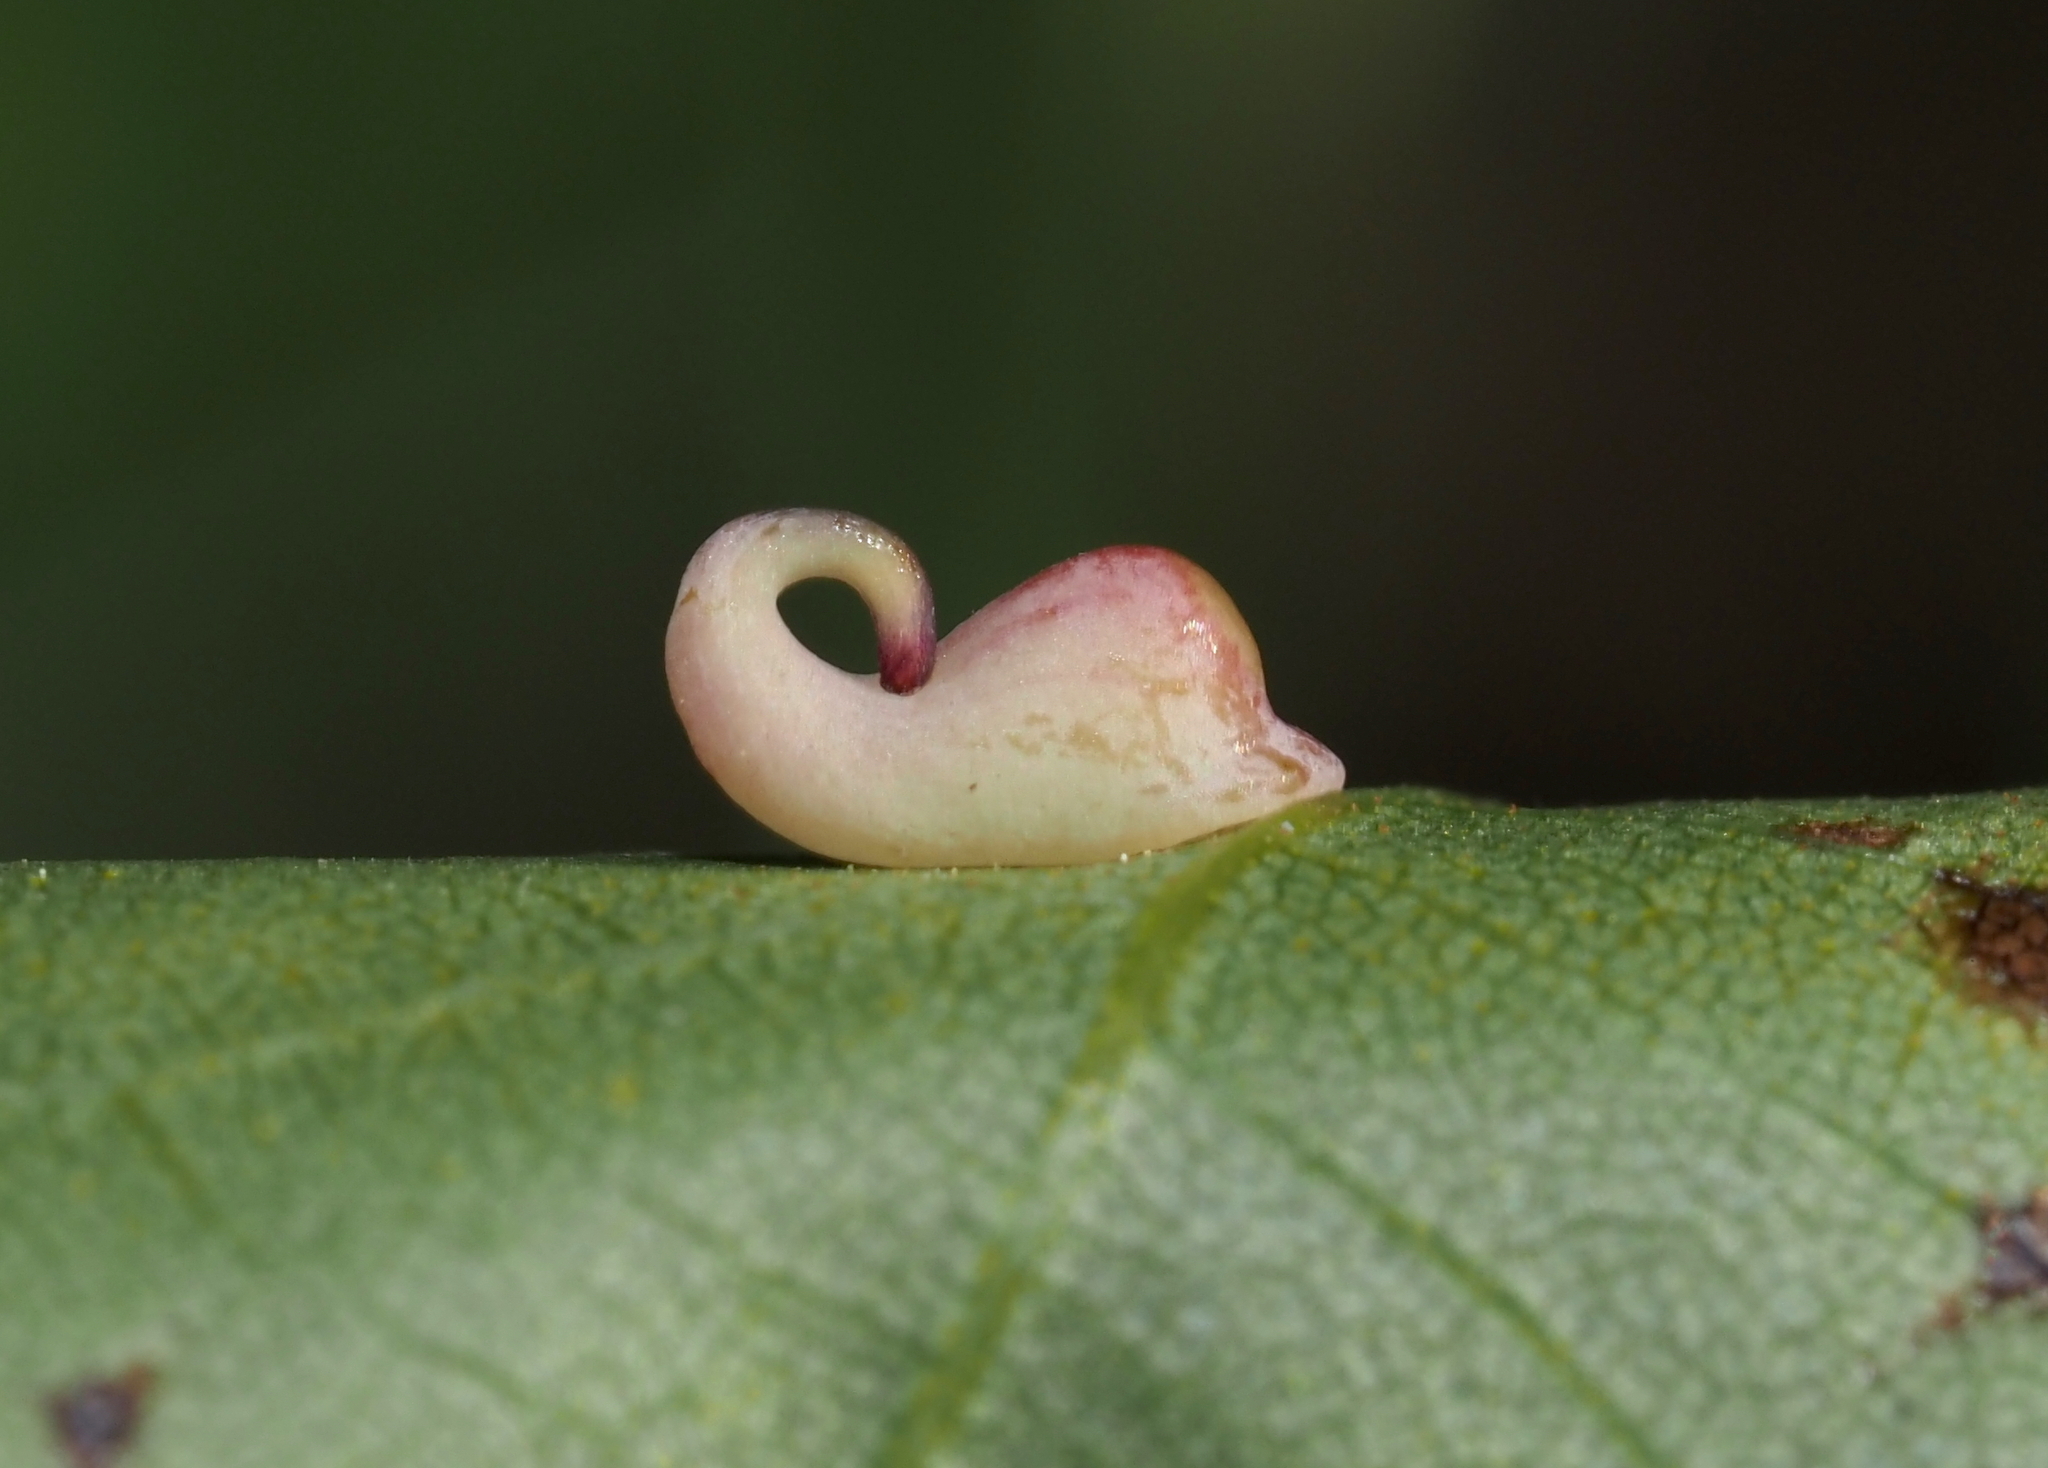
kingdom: Animalia
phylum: Arthropoda
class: Insecta
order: Diptera
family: Cecidomyiidae
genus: Caryomyia
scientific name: Caryomyia recurvata
